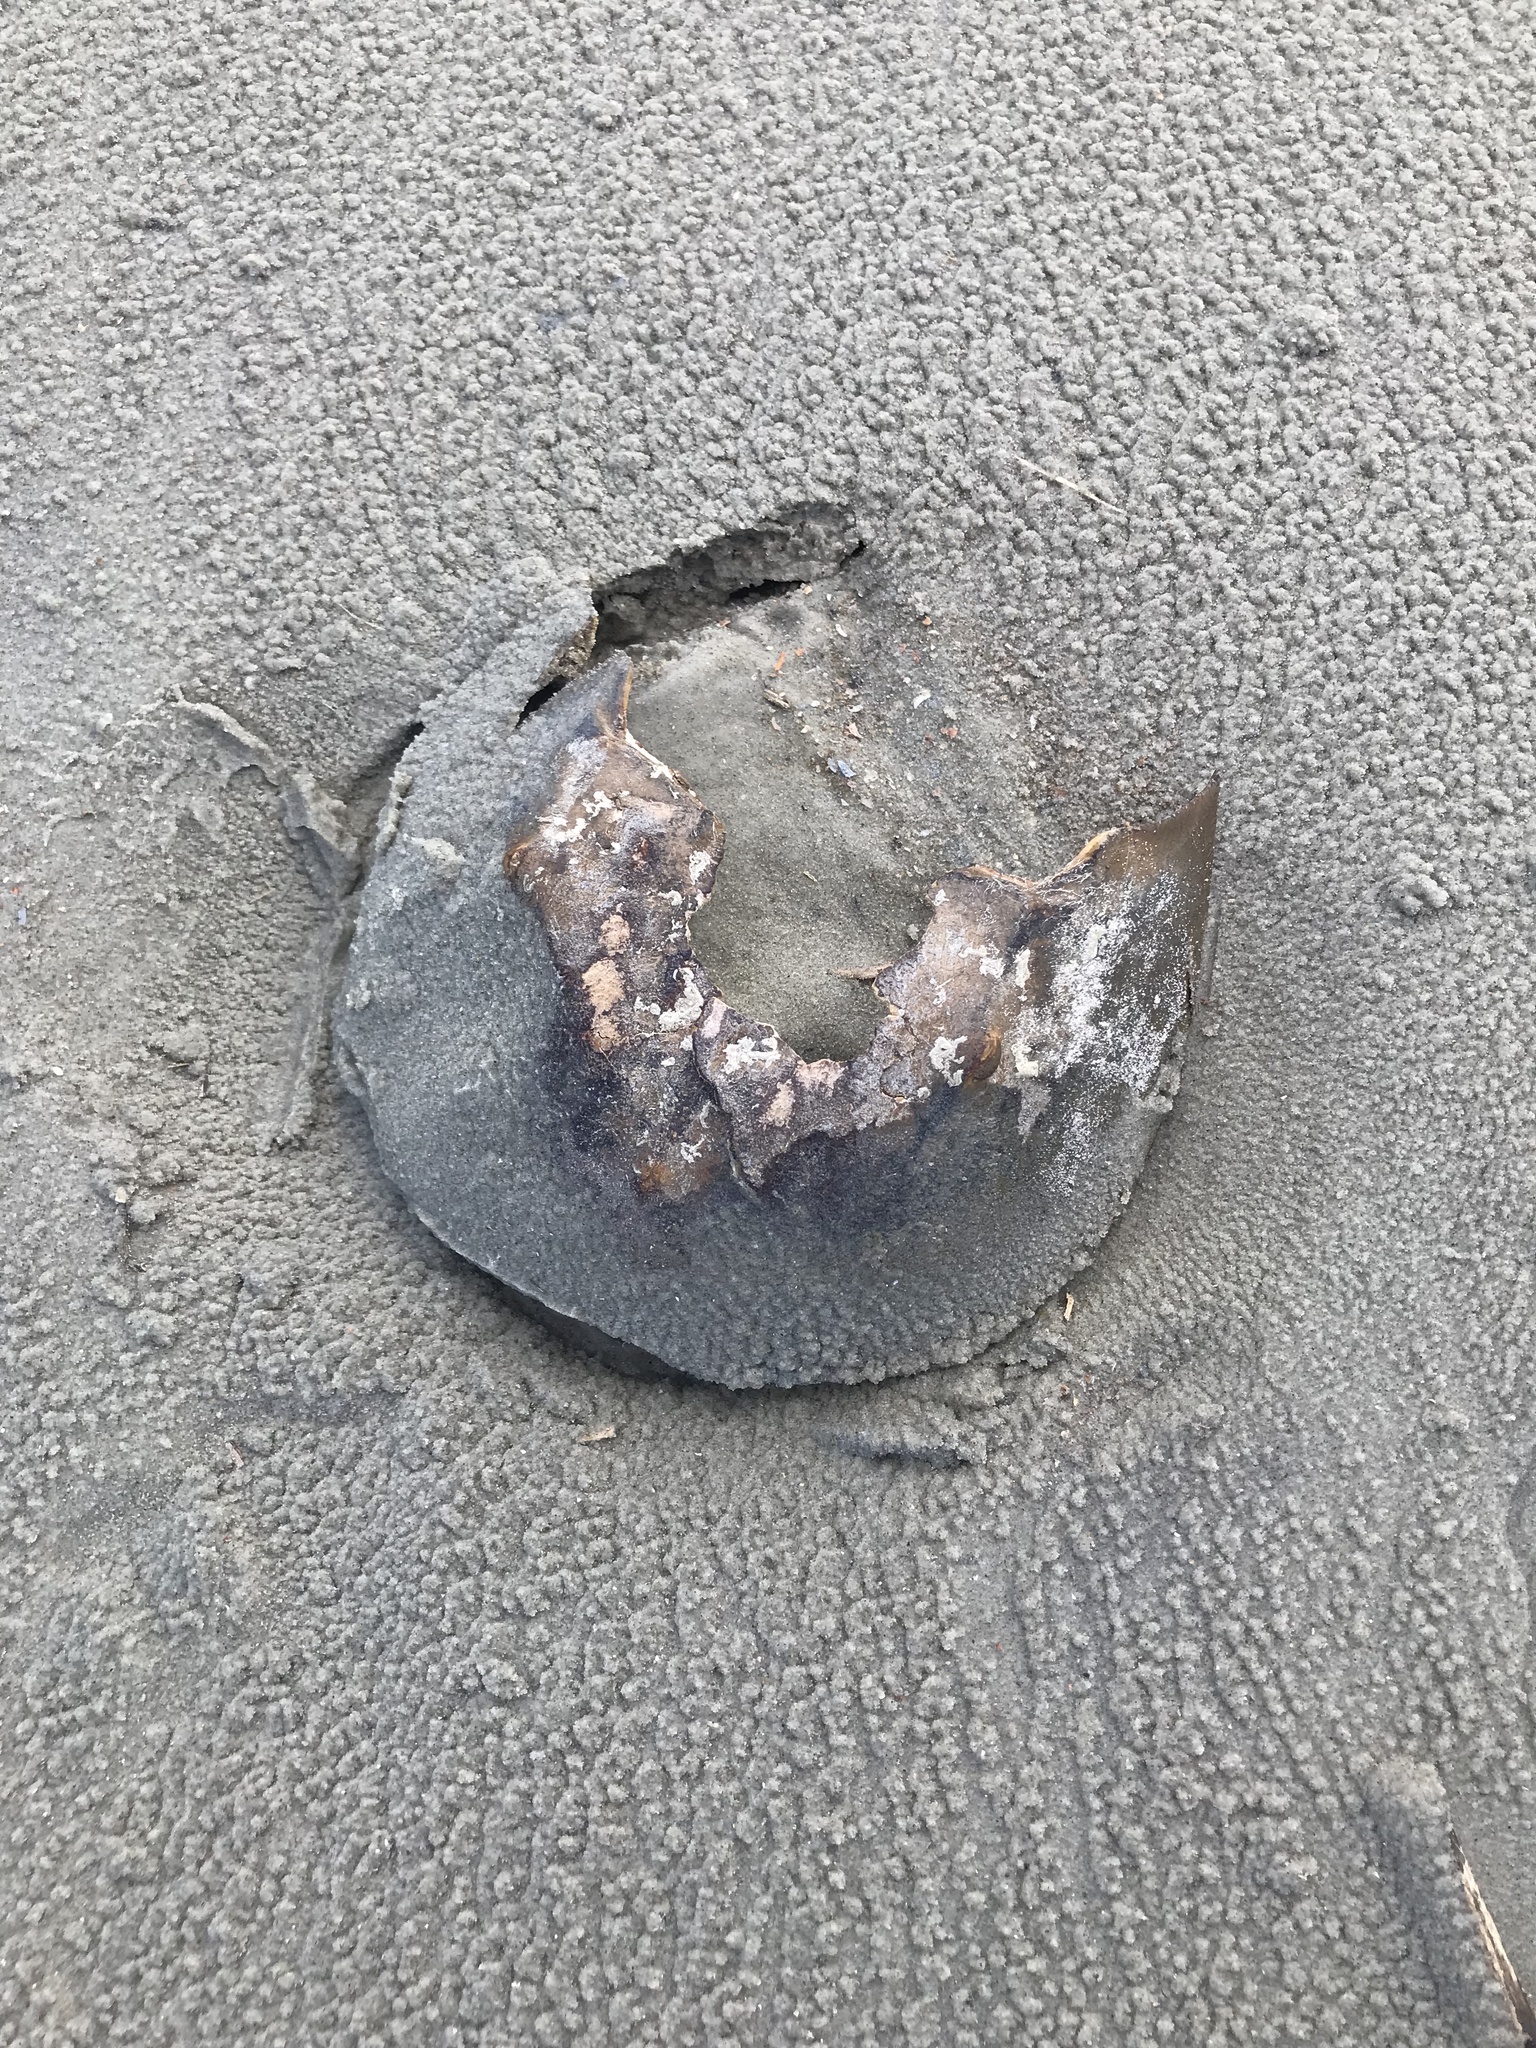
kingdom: Animalia
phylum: Arthropoda
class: Merostomata
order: Xiphosurida
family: Limulidae
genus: Limulus
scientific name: Limulus polyphemus
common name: Horseshoe crab
